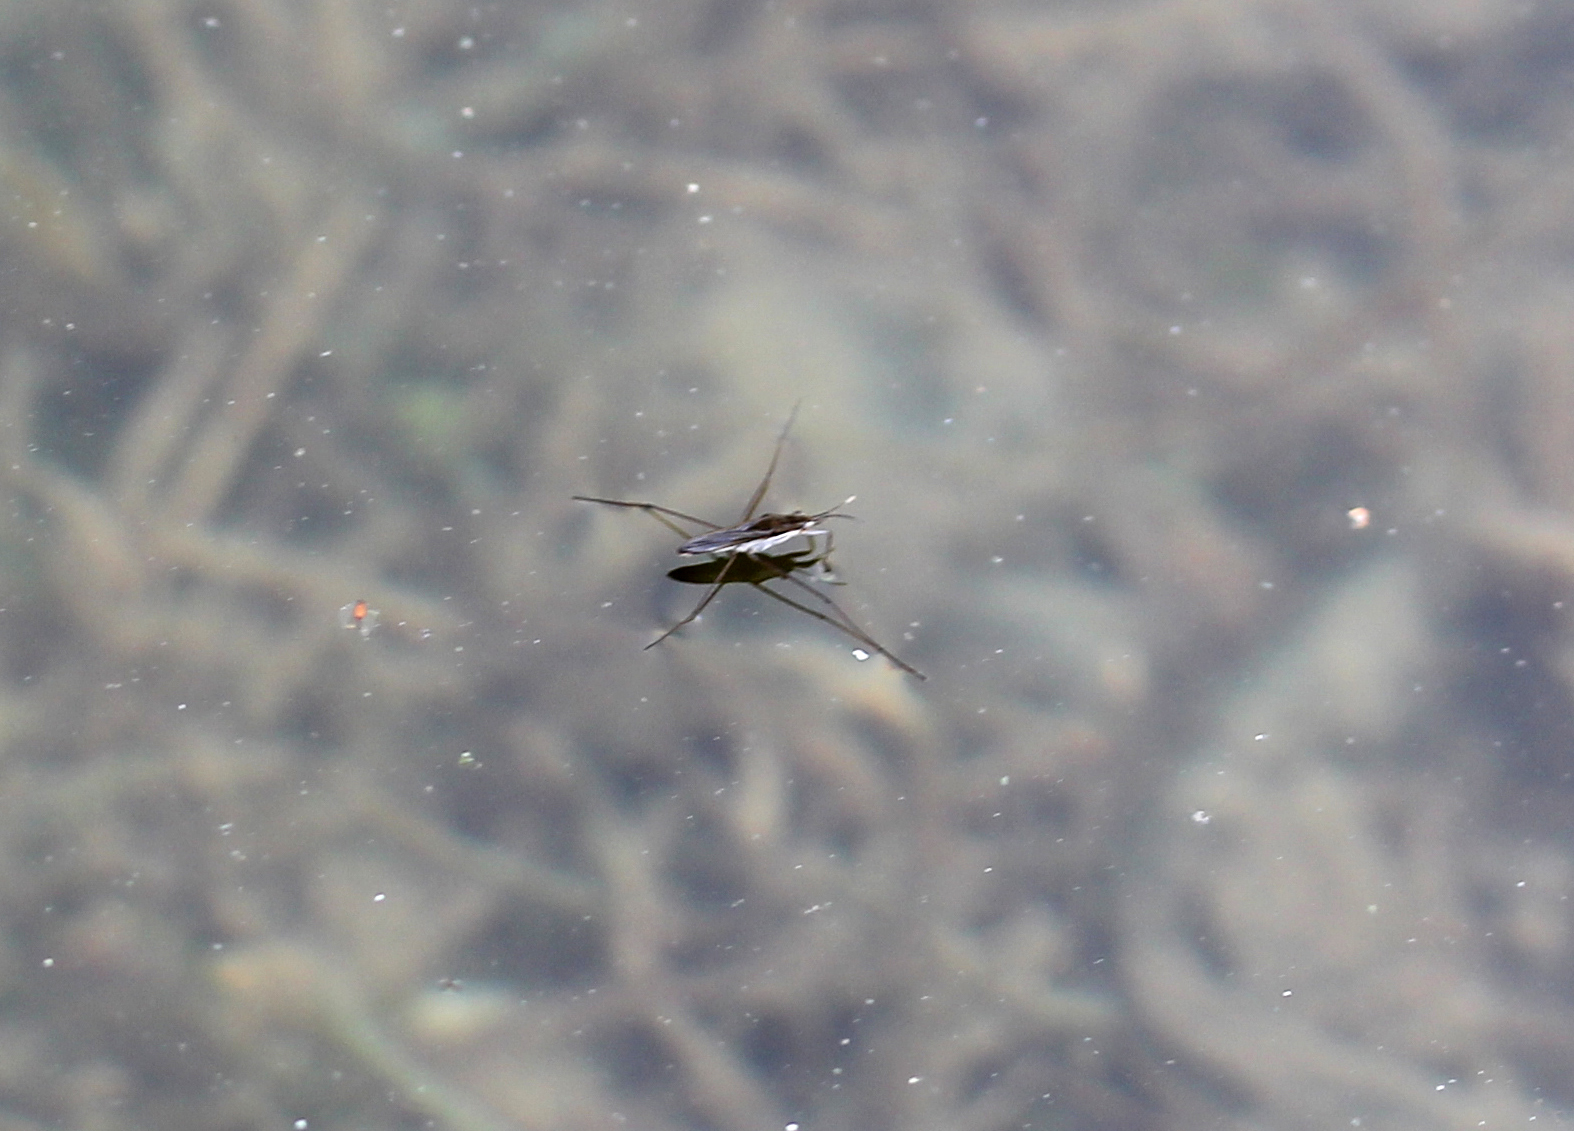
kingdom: Animalia
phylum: Arthropoda
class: Insecta
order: Hemiptera
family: Gerridae
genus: Gerris
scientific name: Gerris
